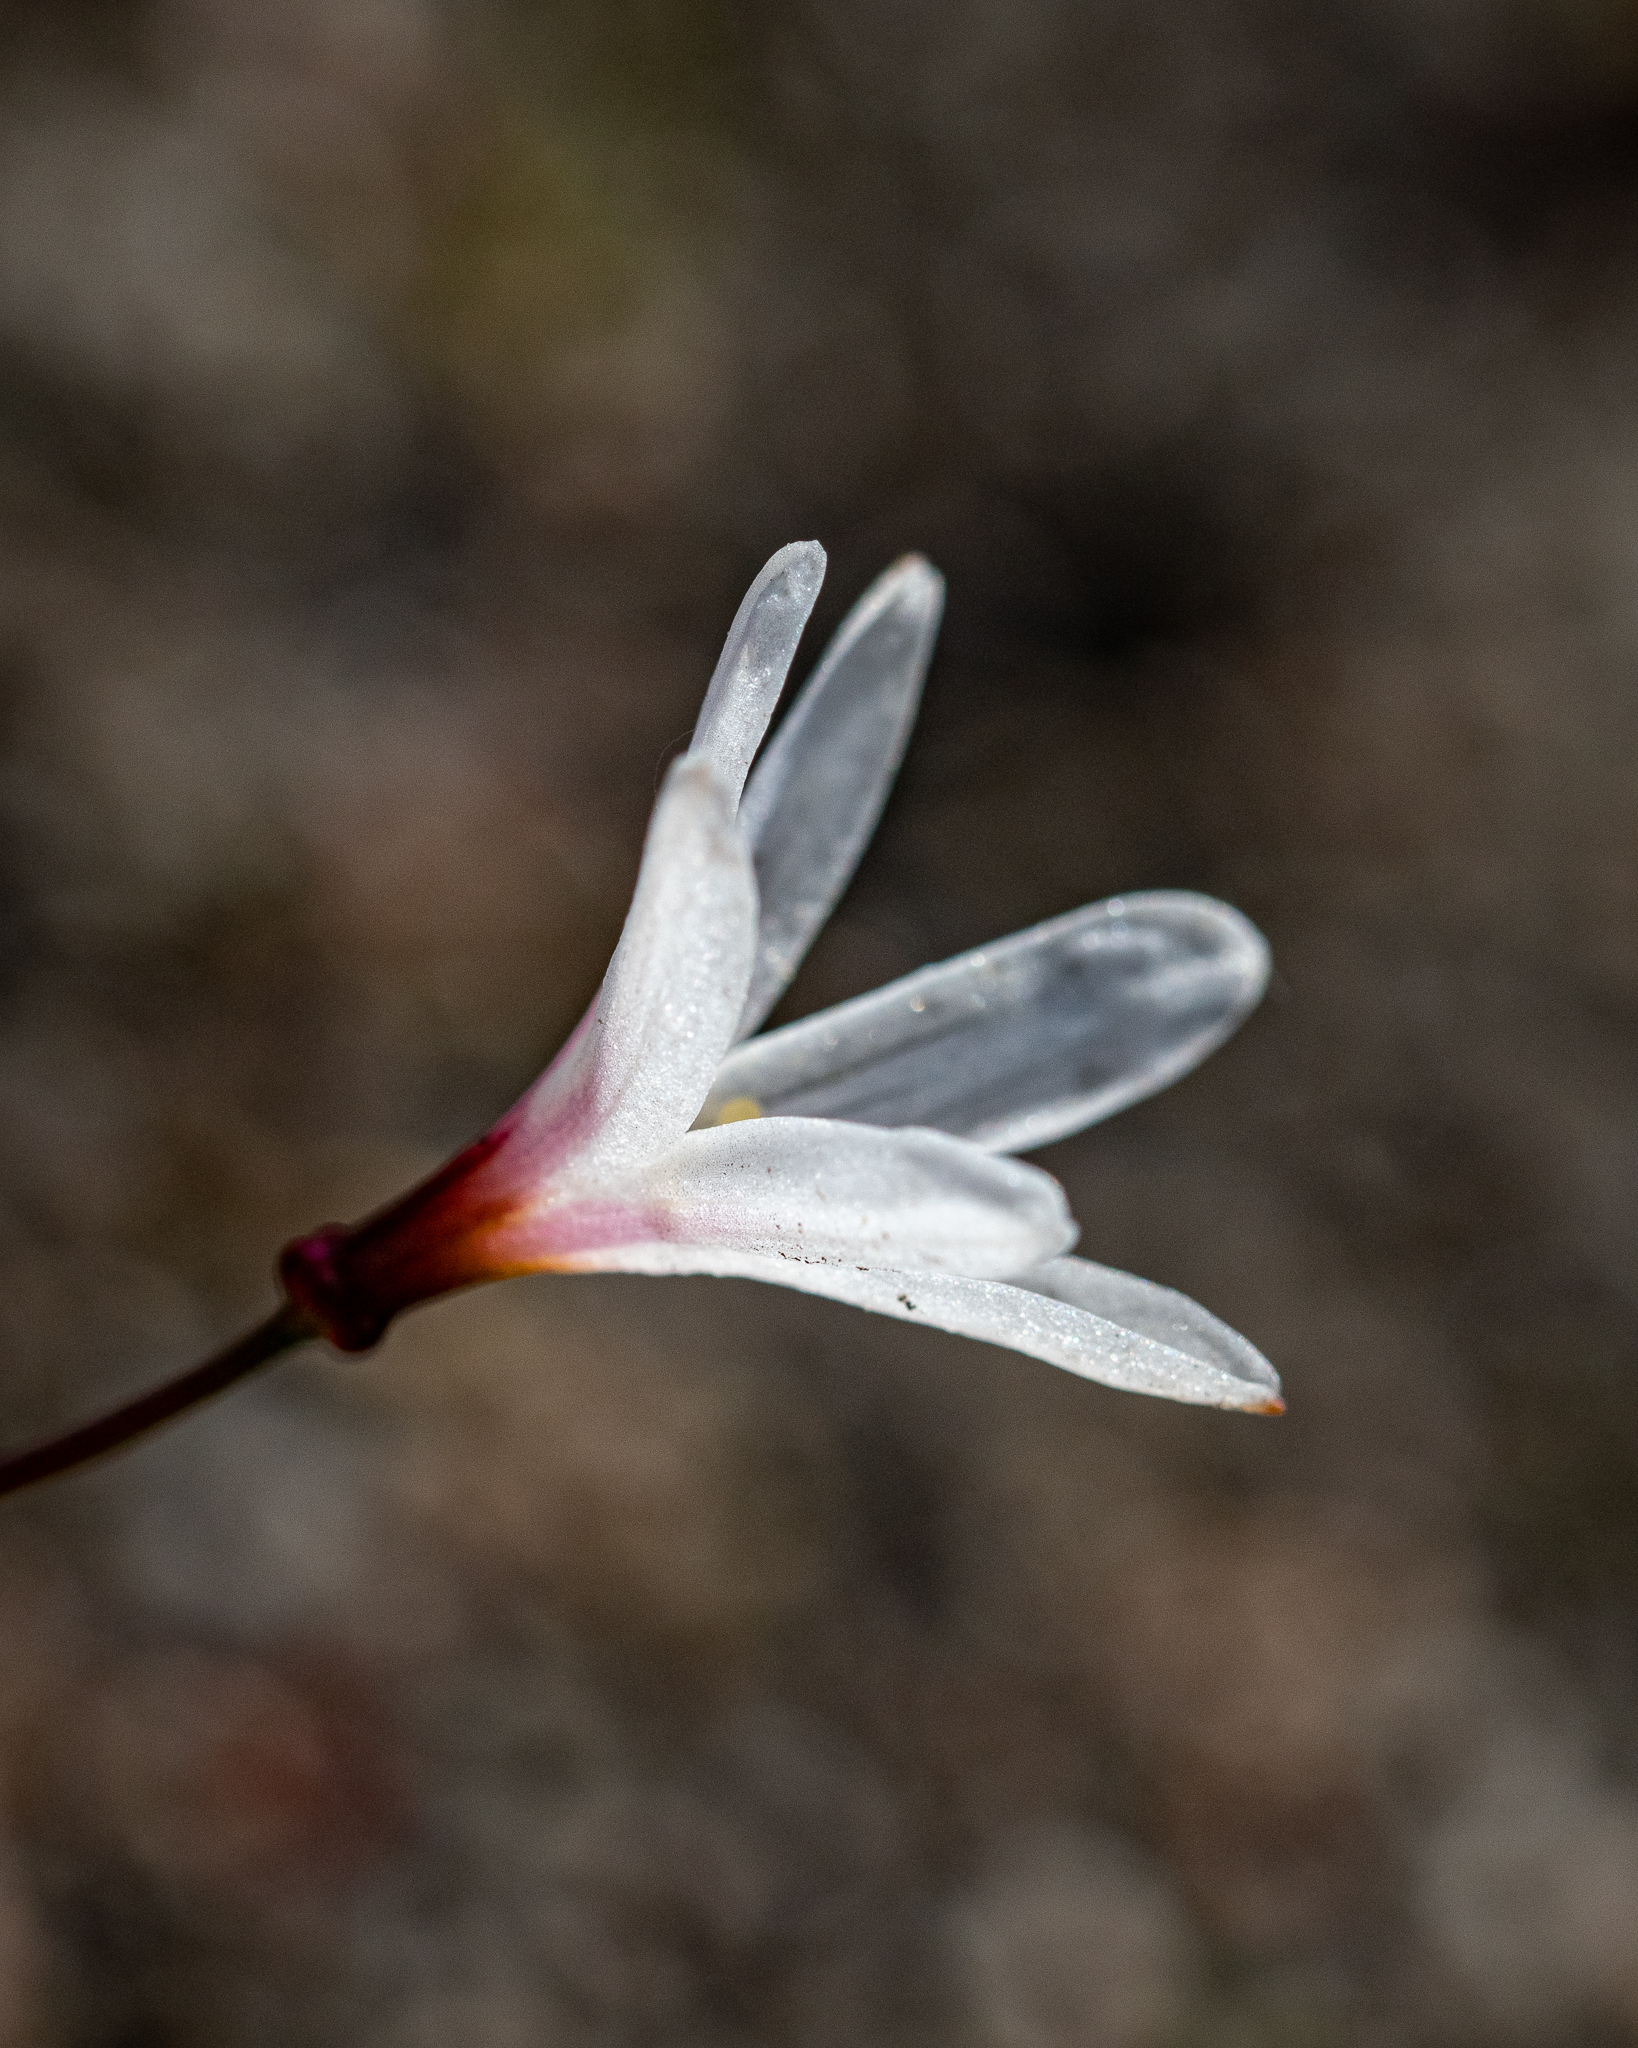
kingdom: Plantae
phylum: Tracheophyta
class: Liliopsida
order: Asparagales
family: Amaryllidaceae
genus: Strumaria
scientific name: Strumaria spiralis
